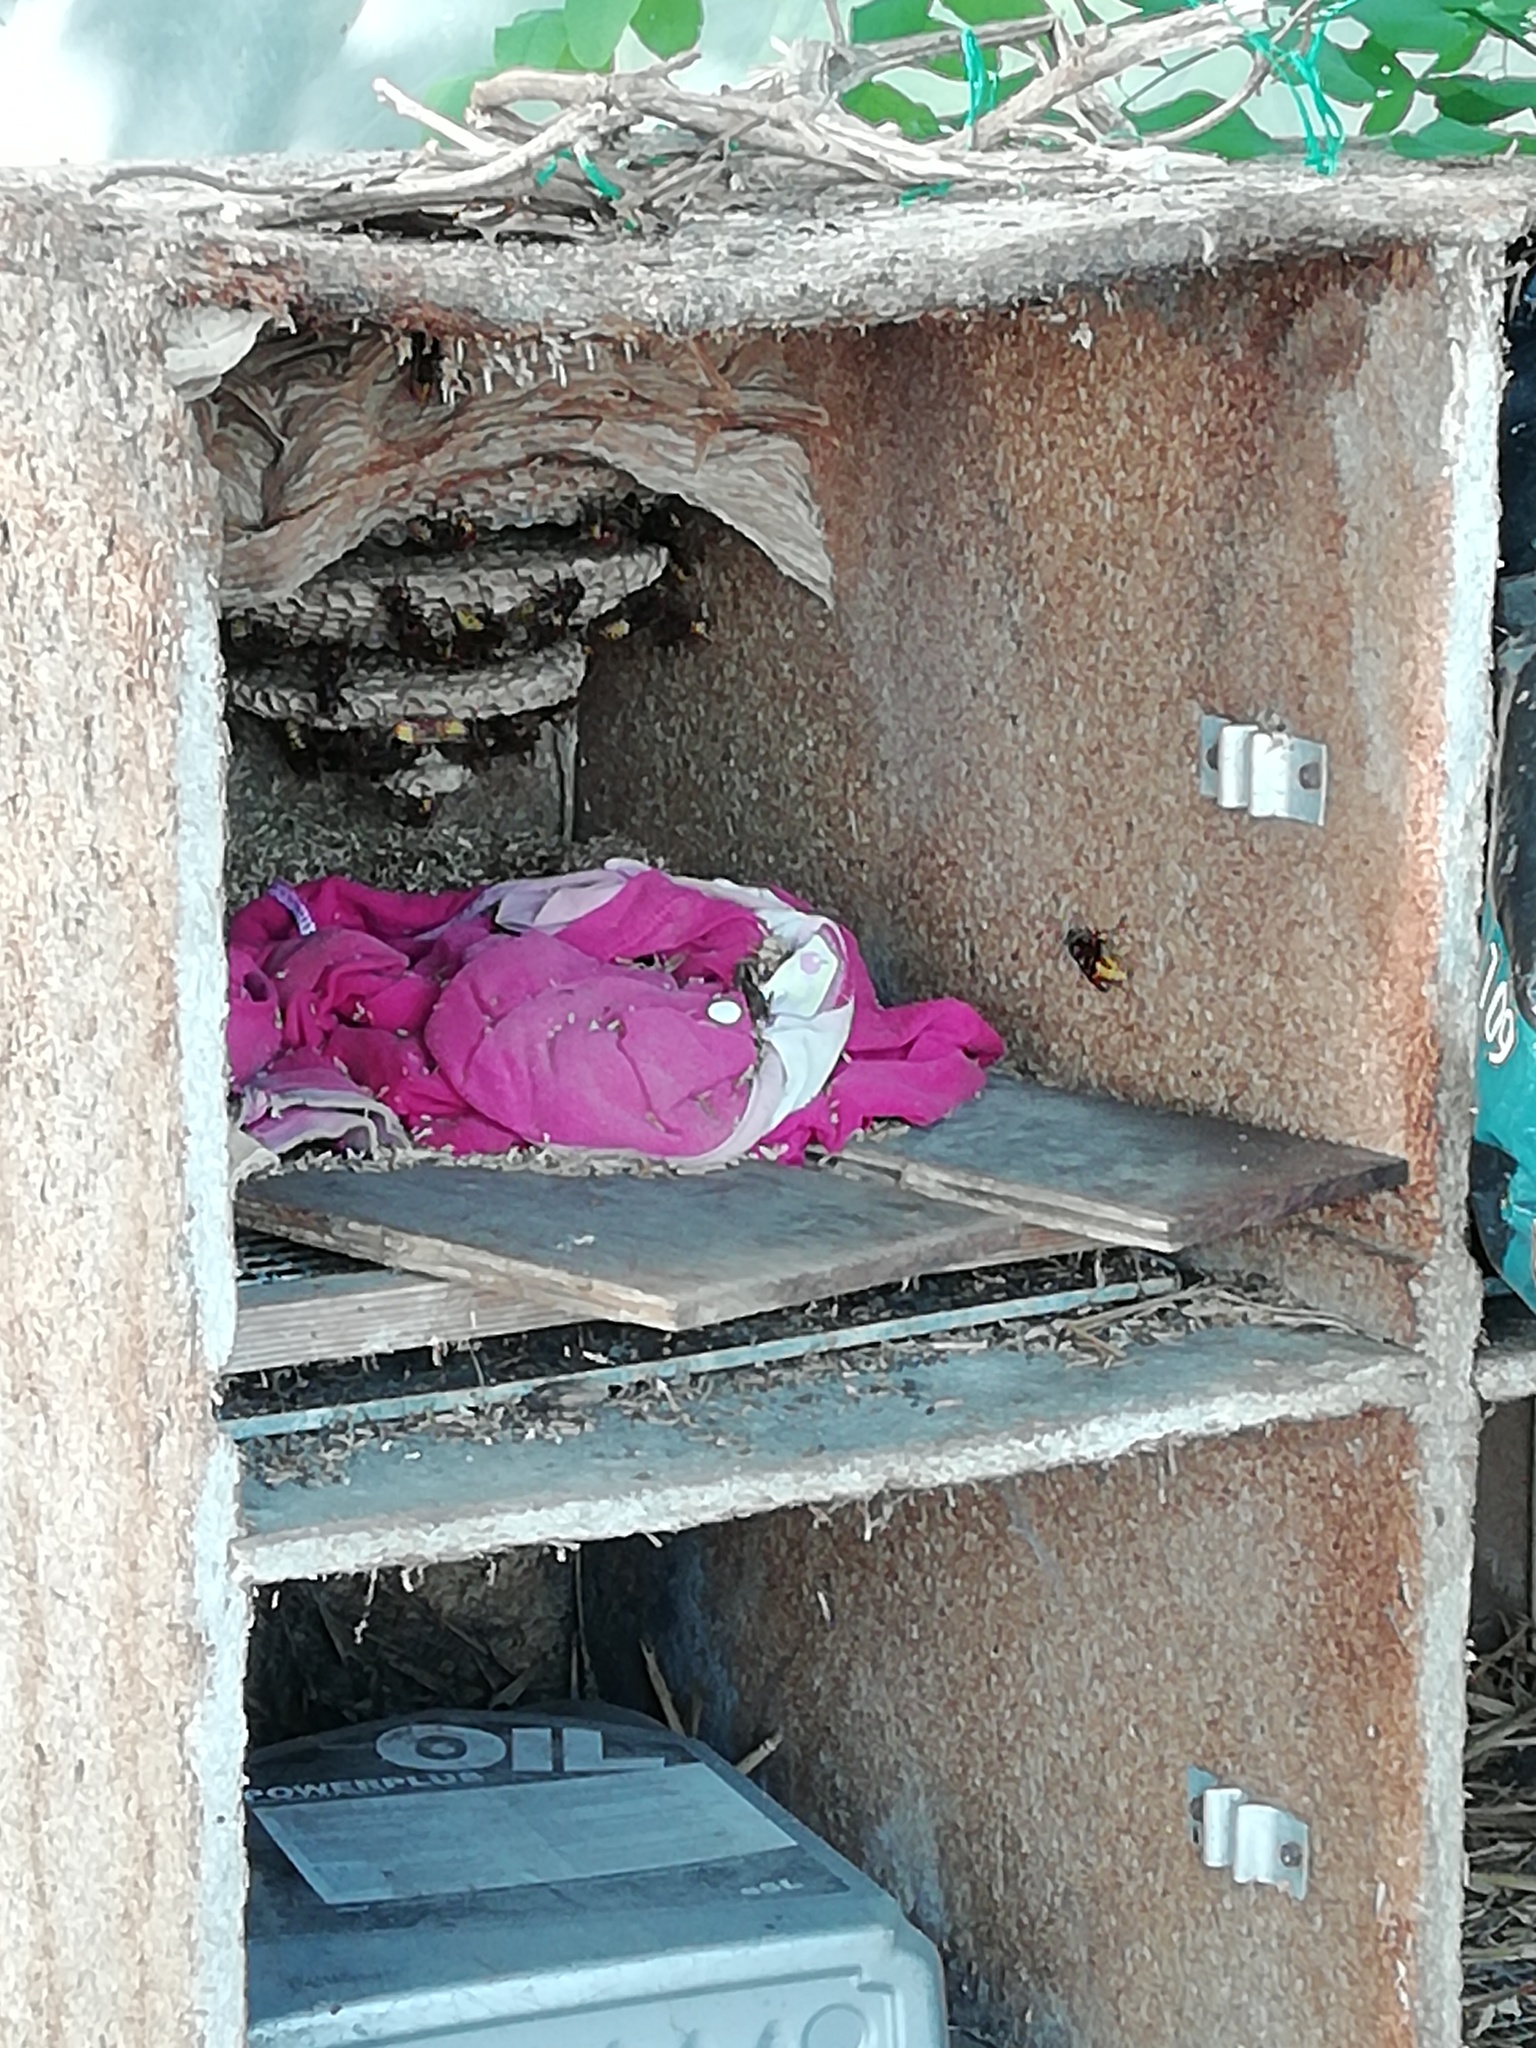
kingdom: Animalia
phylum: Arthropoda
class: Insecta
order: Hymenoptera
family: Vespidae
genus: Vespa
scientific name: Vespa crabro
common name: Hornet
